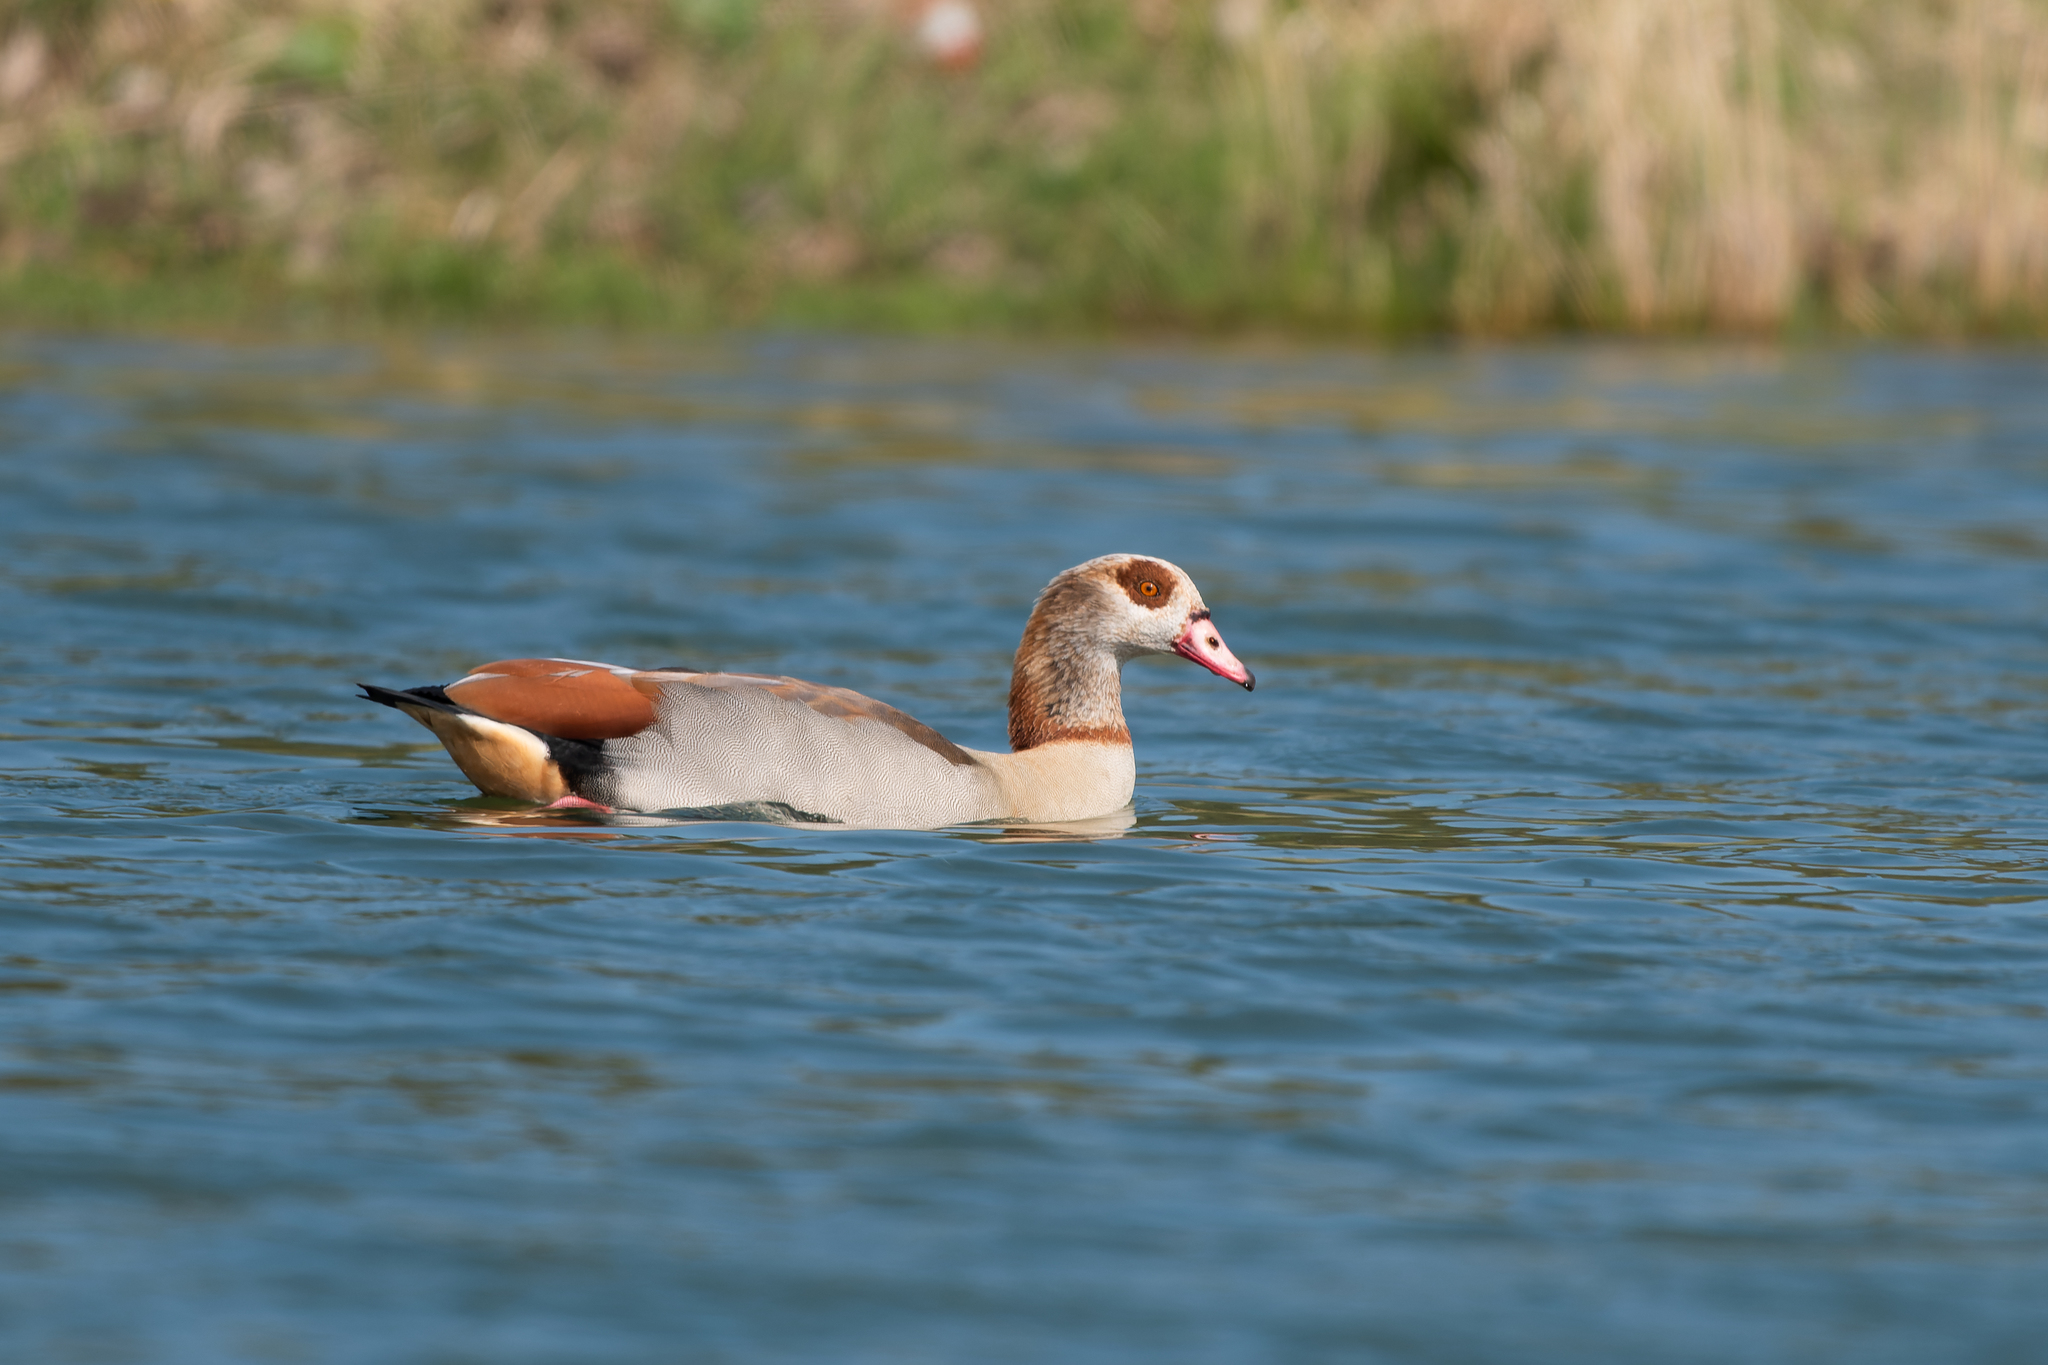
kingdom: Animalia
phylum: Chordata
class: Aves
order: Anseriformes
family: Anatidae
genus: Alopochen
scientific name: Alopochen aegyptiaca
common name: Egyptian goose
